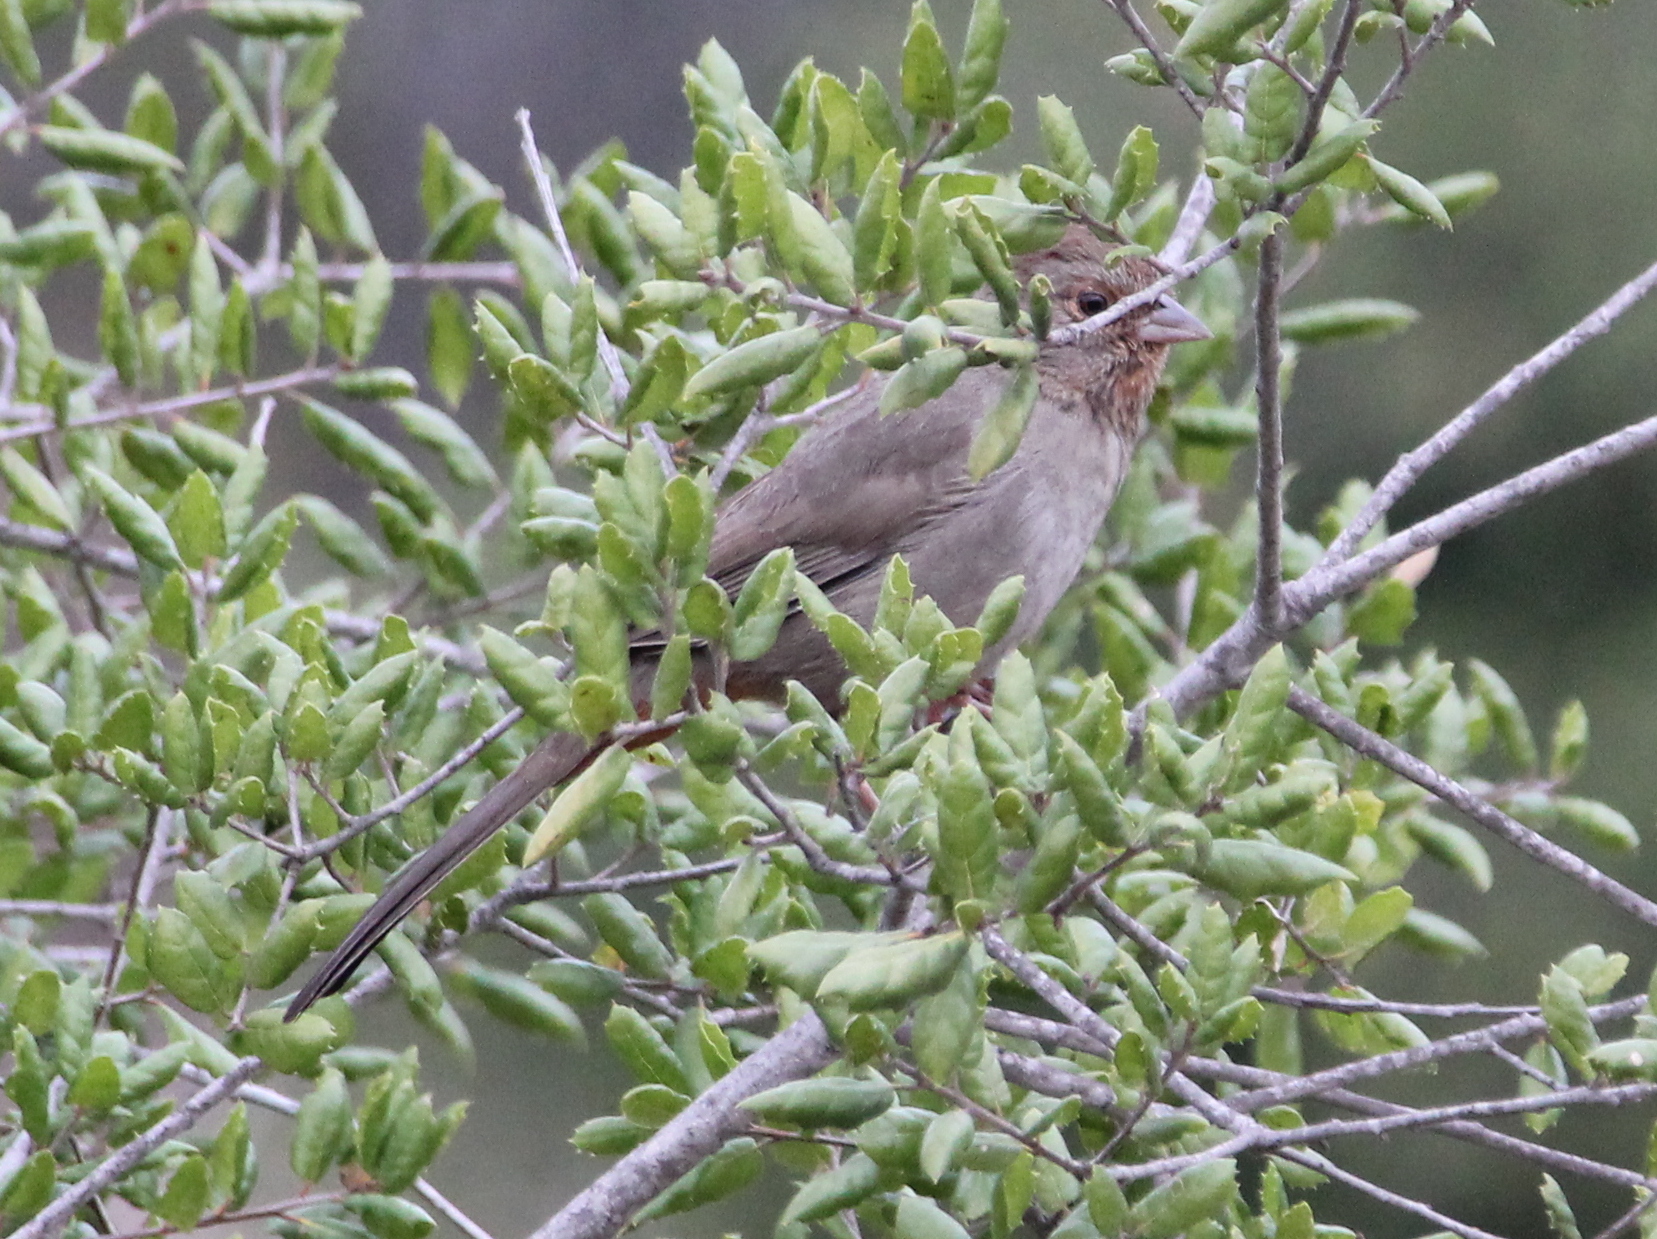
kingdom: Animalia
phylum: Chordata
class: Aves
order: Passeriformes
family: Passerellidae
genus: Melozone
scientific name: Melozone crissalis
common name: California towhee
